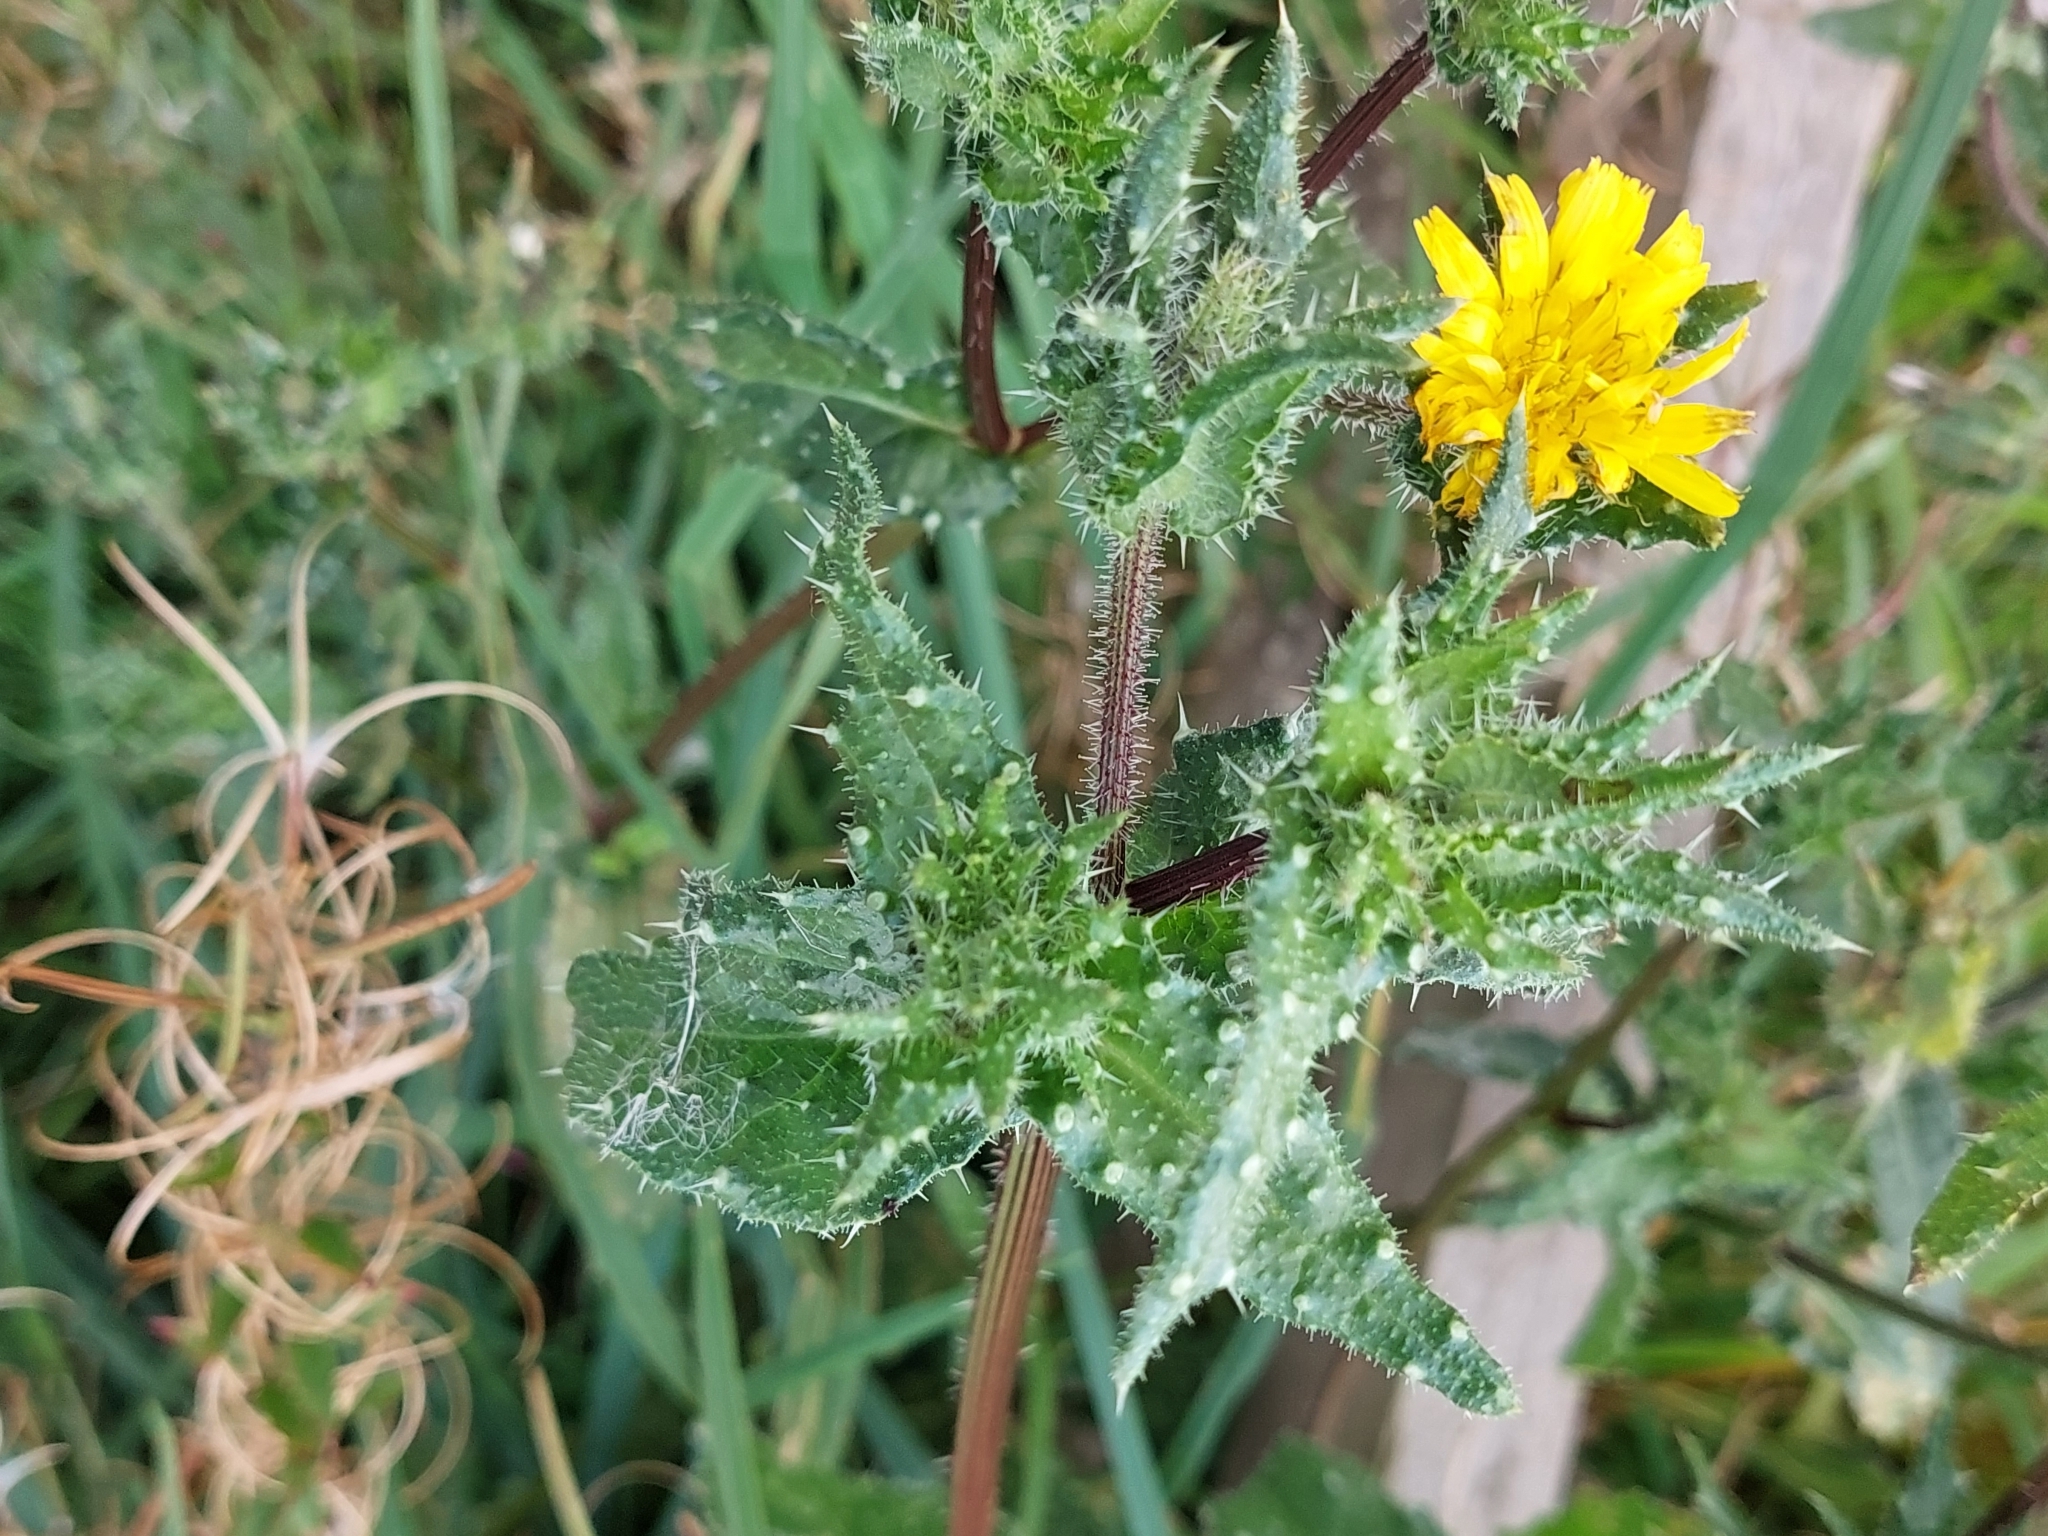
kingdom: Plantae
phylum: Tracheophyta
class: Magnoliopsida
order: Asterales
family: Asteraceae
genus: Helminthotheca
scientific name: Helminthotheca echioides
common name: Ox-tongue
